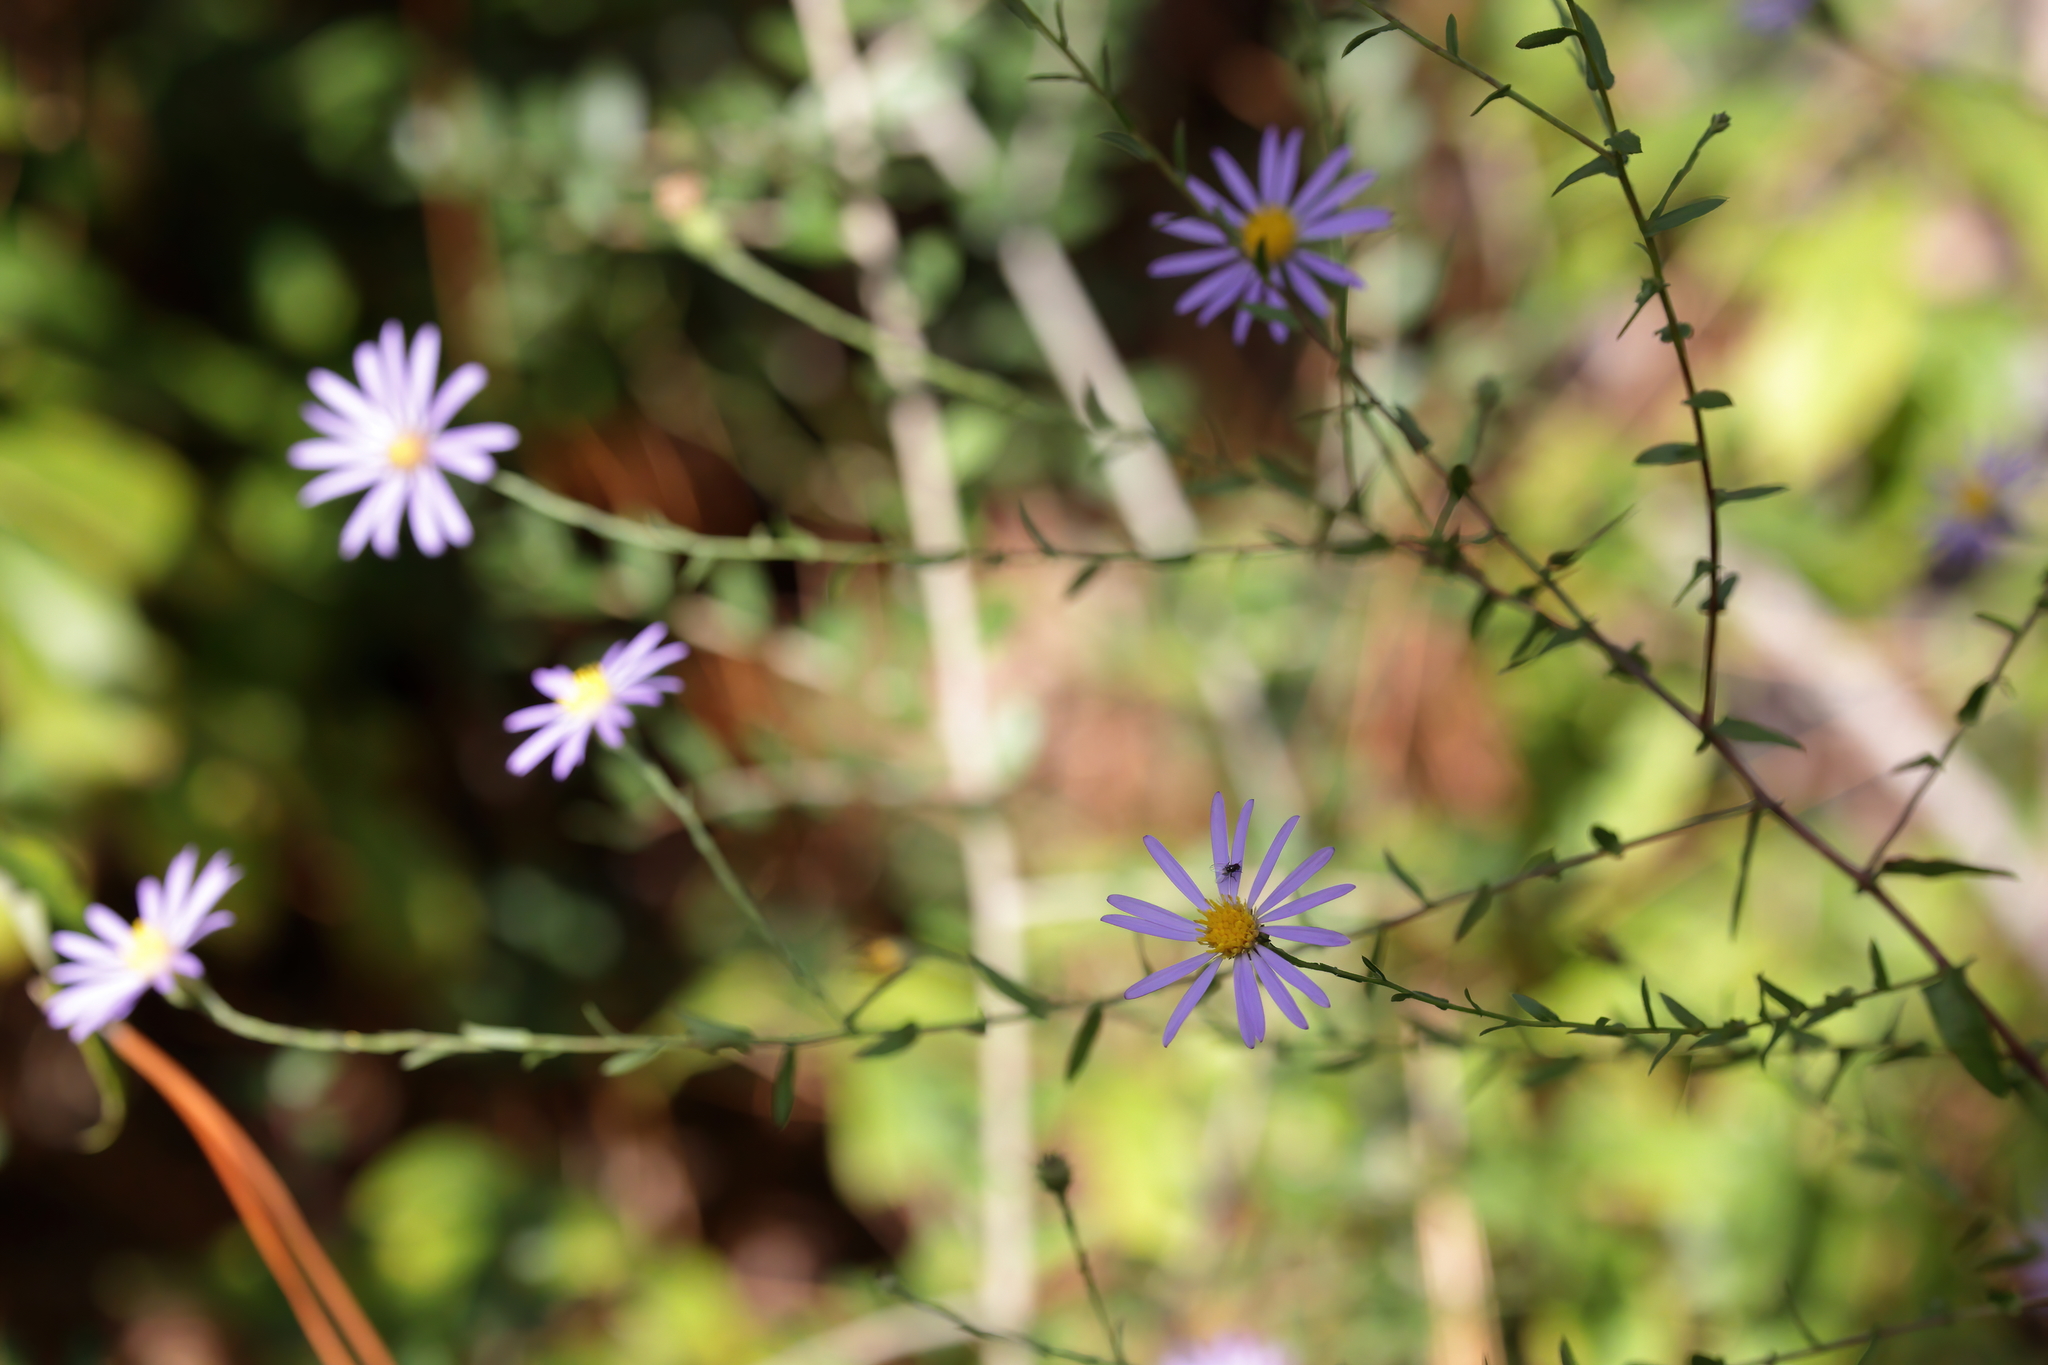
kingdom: Plantae
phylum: Tracheophyta
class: Magnoliopsida
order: Asterales
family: Asteraceae
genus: Symphyotrichum
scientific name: Symphyotrichum patens
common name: Late purple aster
